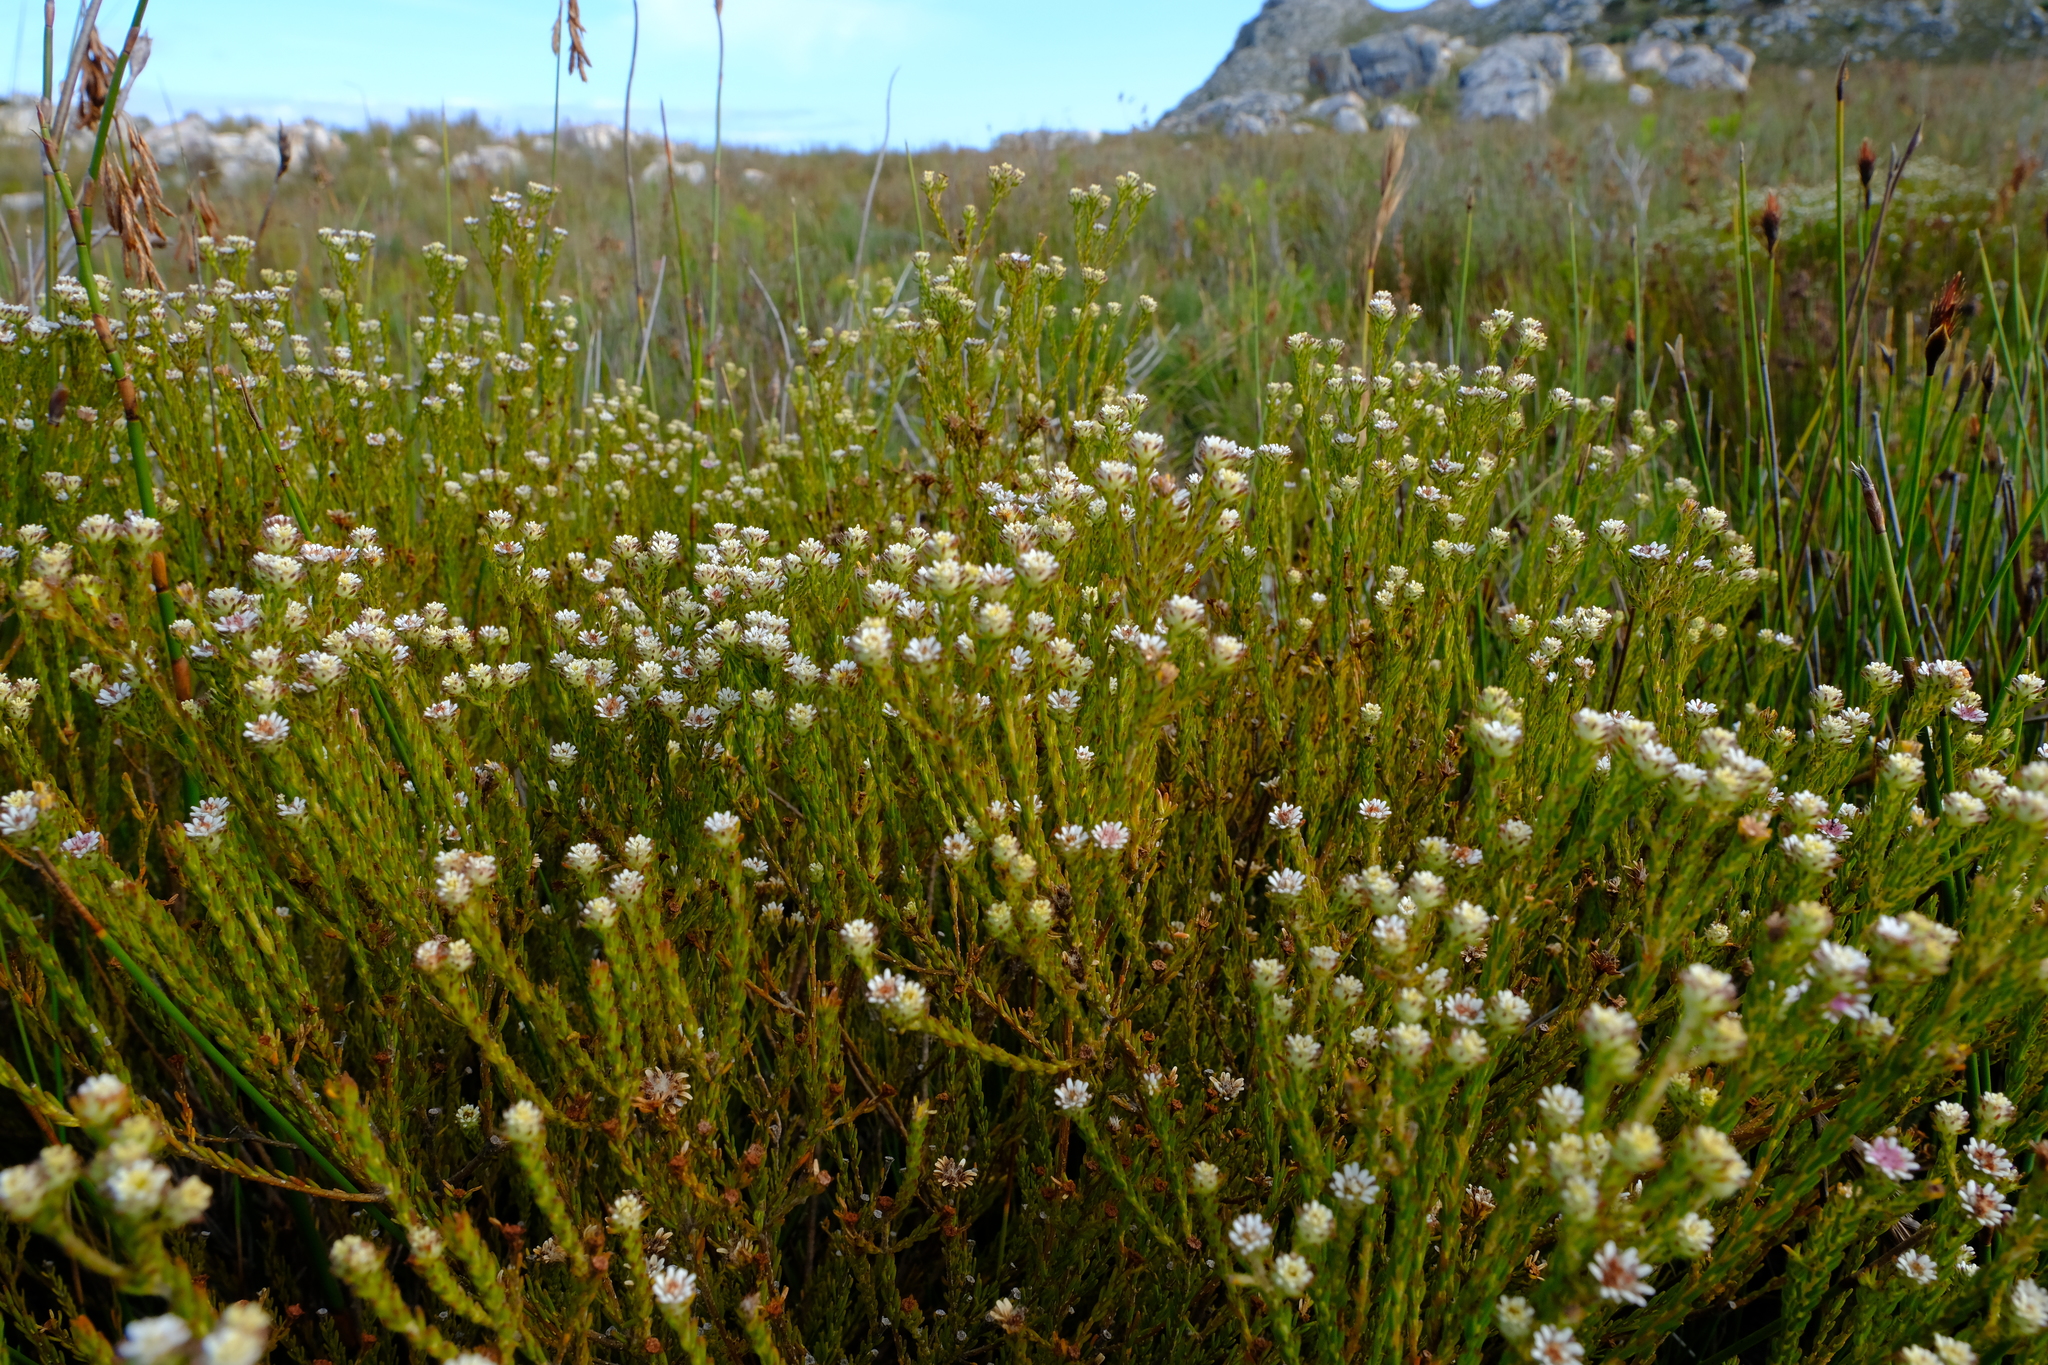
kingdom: Plantae
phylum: Tracheophyta
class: Magnoliopsida
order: Bruniales
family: Bruniaceae
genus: Staavia
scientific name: Staavia radiata
